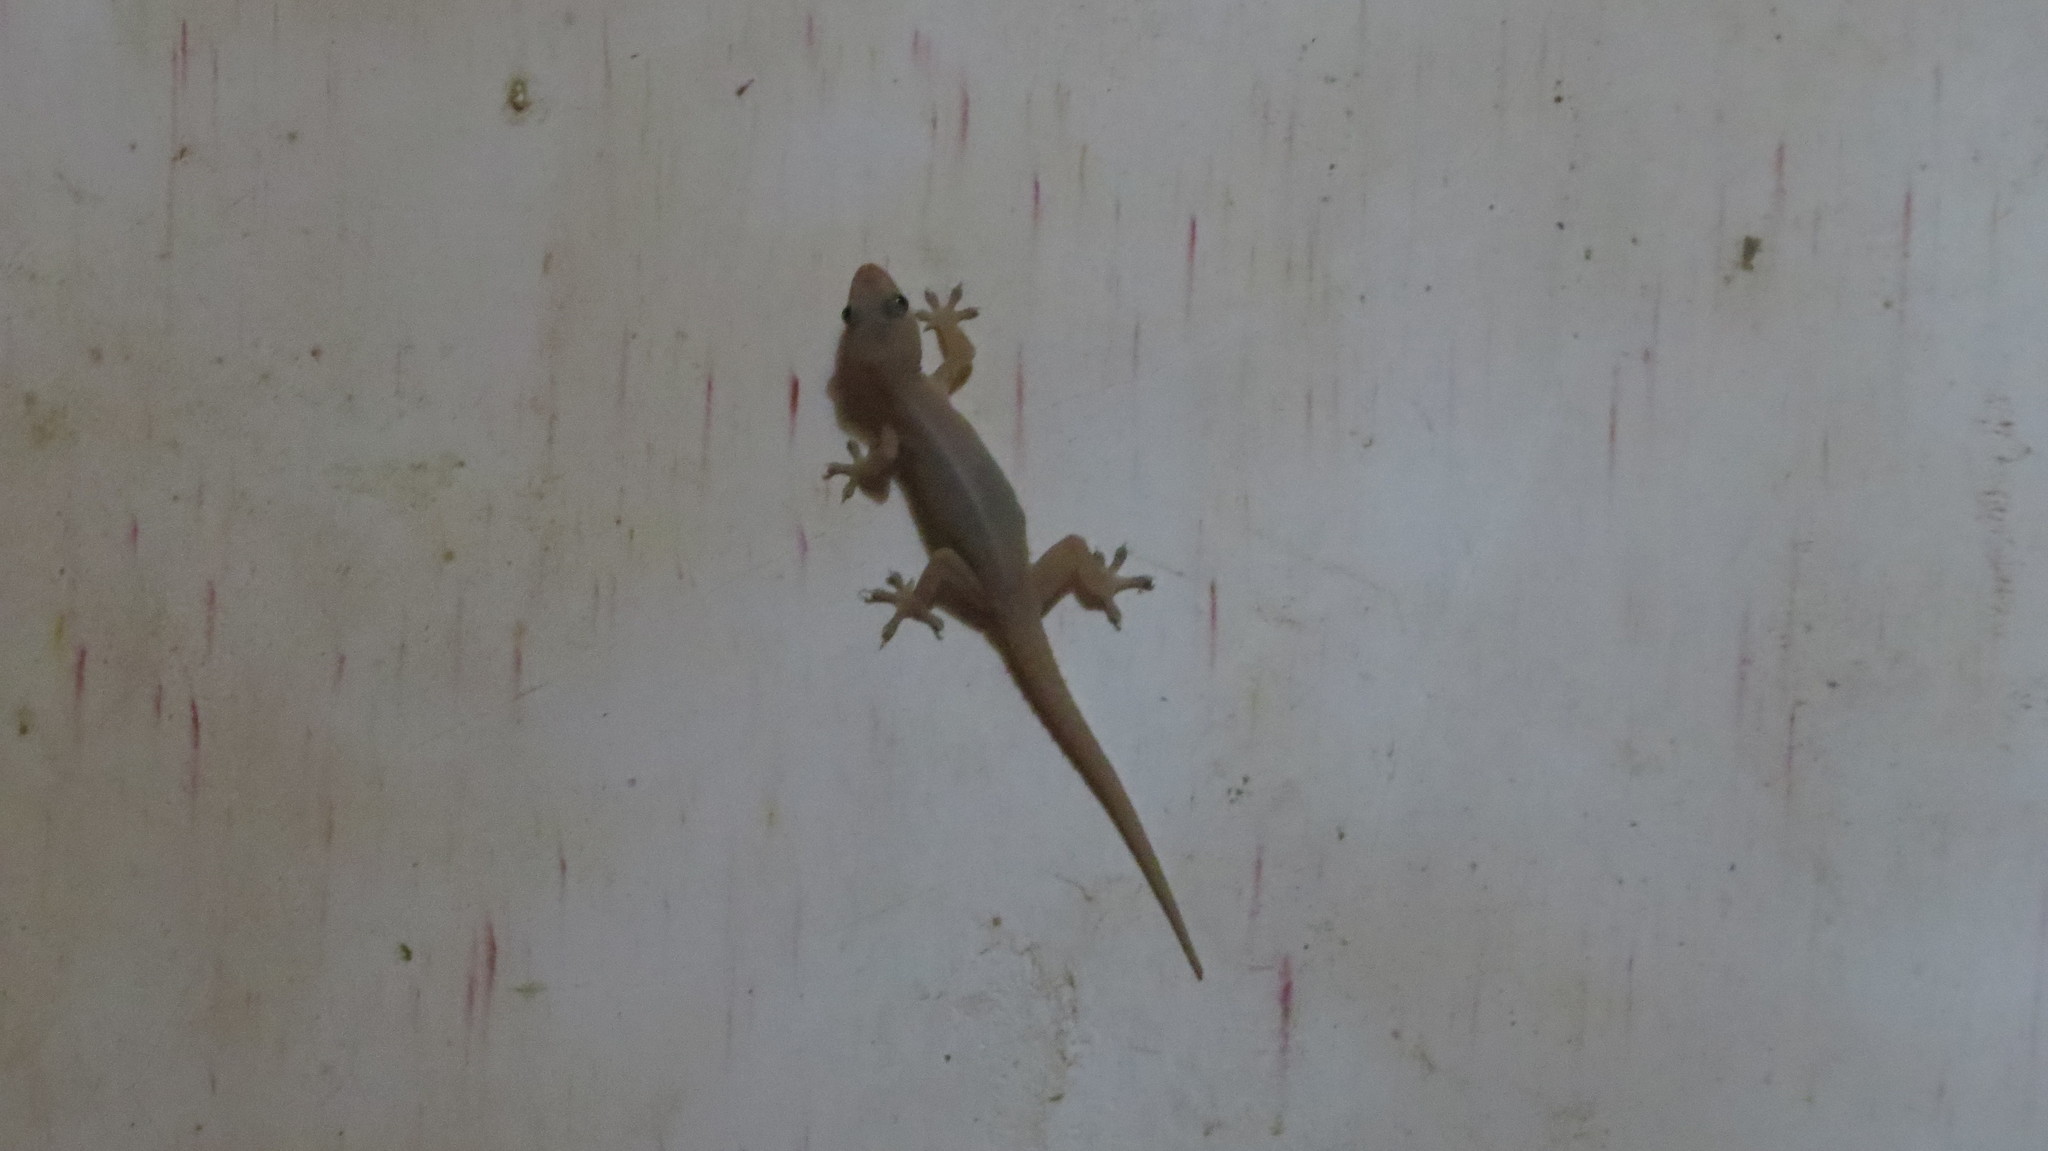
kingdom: Animalia
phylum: Chordata
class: Squamata
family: Gekkonidae
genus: Hemidactylus
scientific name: Hemidactylus frenatus
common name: Common house gecko
